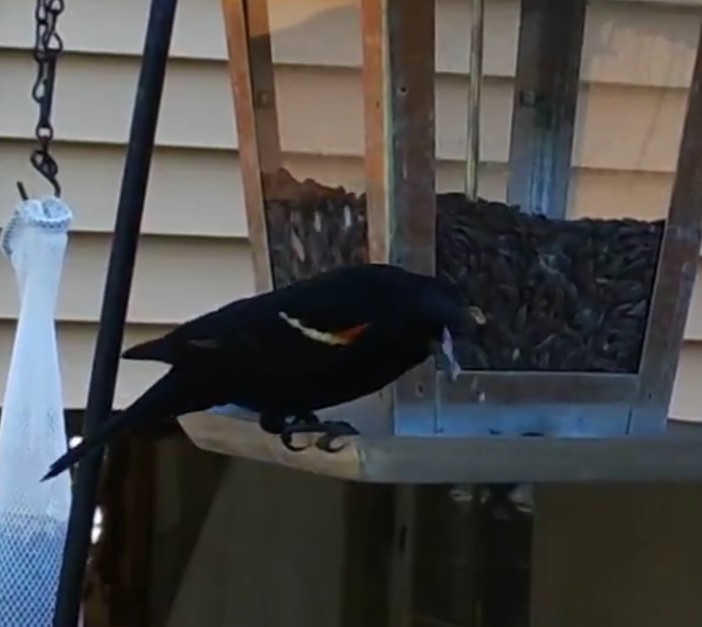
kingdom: Animalia
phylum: Chordata
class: Aves
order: Passeriformes
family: Icteridae
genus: Agelaius
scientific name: Agelaius phoeniceus
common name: Red-winged blackbird
